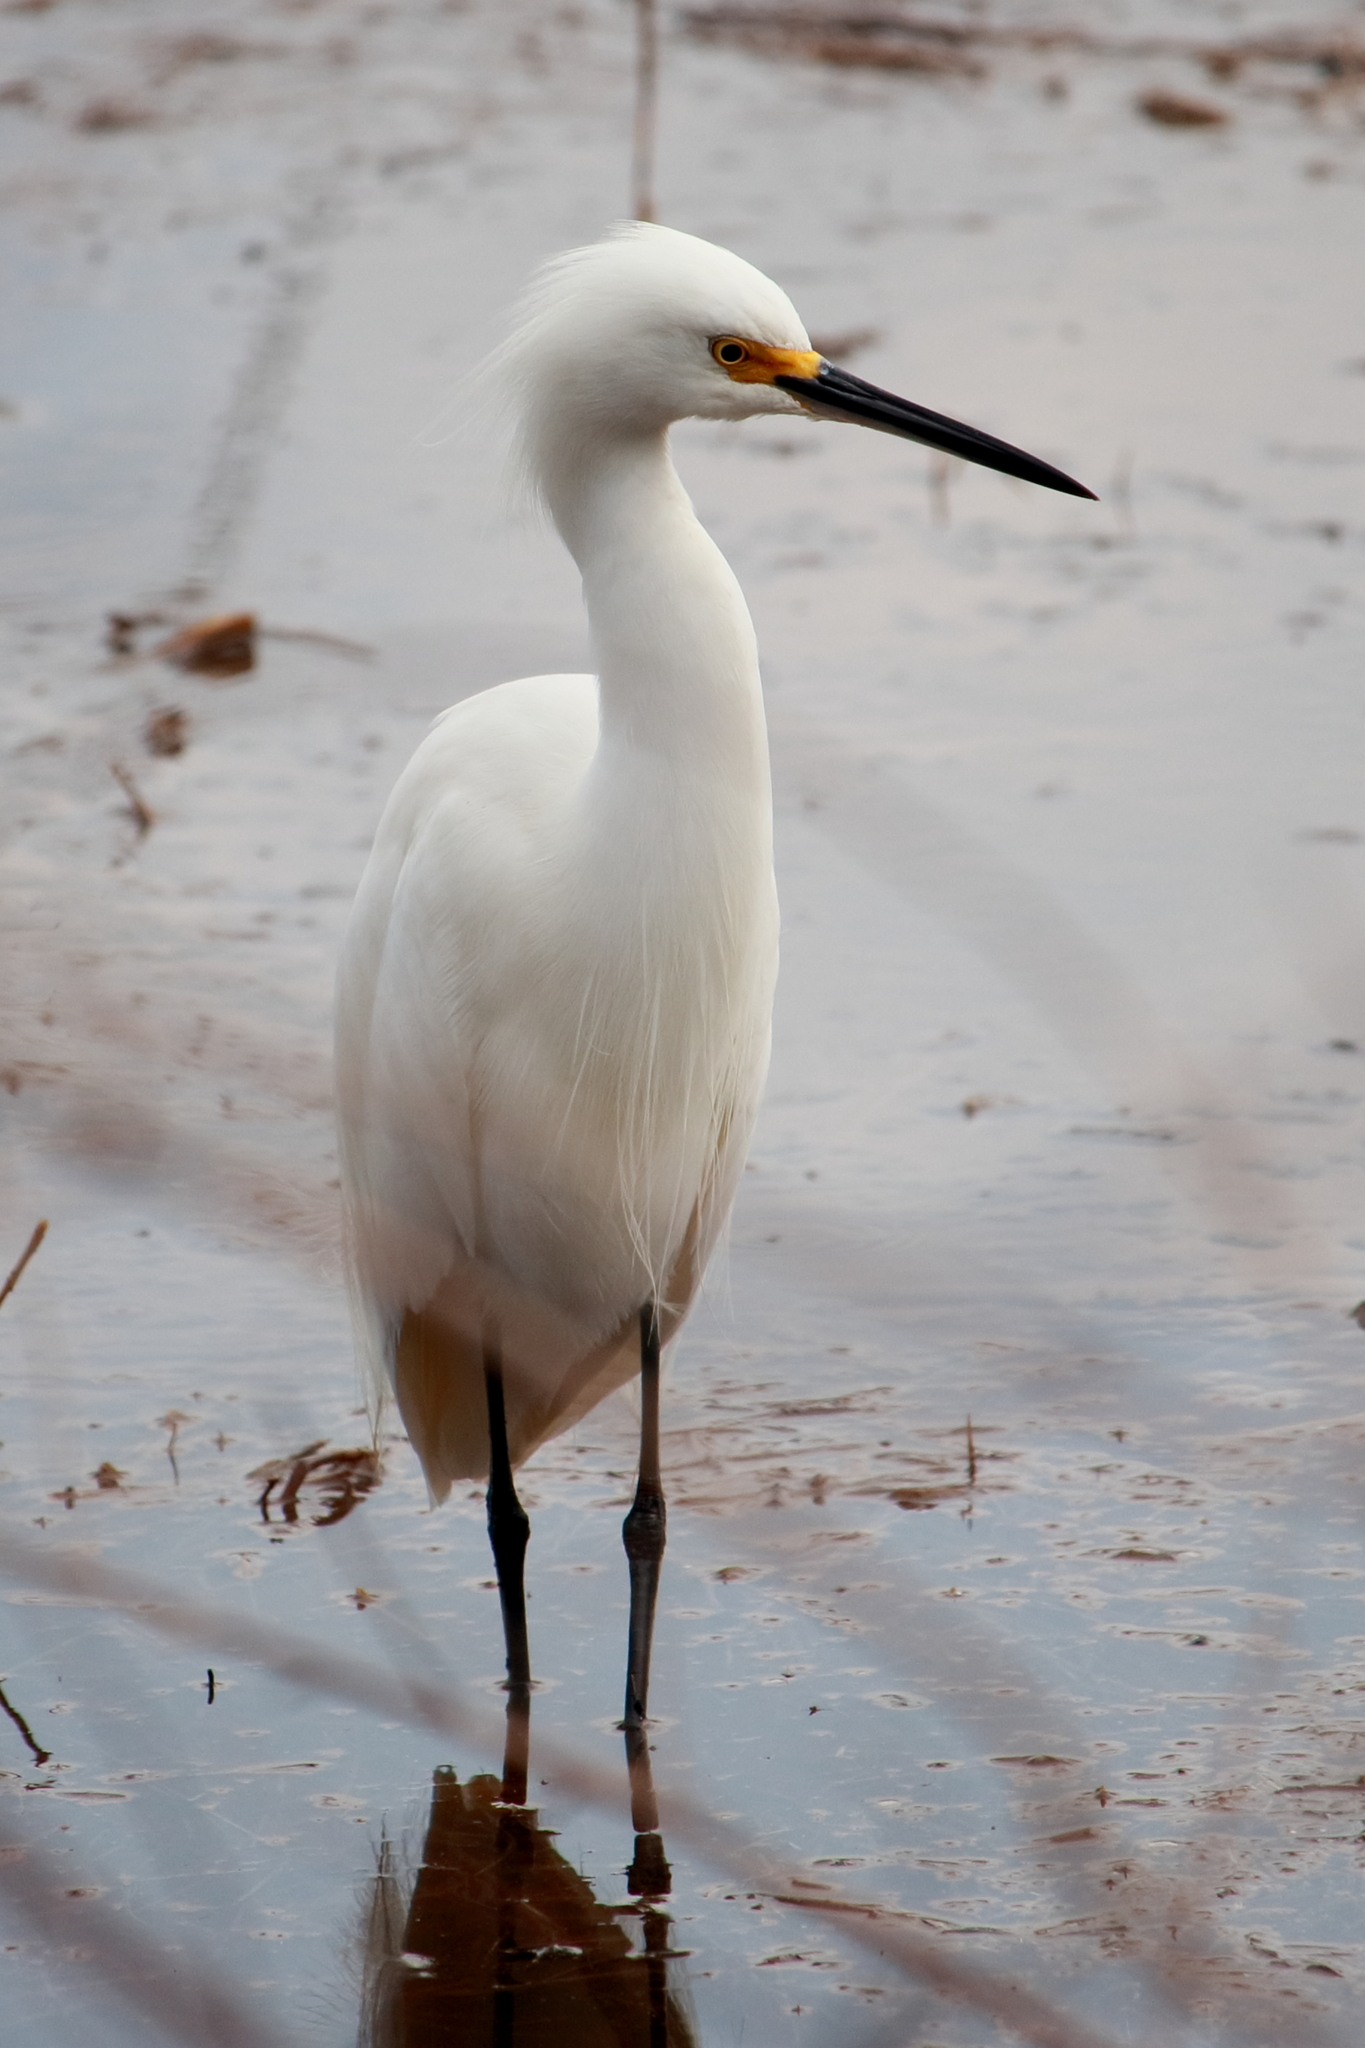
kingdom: Animalia
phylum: Chordata
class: Aves
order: Pelecaniformes
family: Ardeidae
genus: Egretta
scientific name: Egretta thula
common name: Snowy egret
